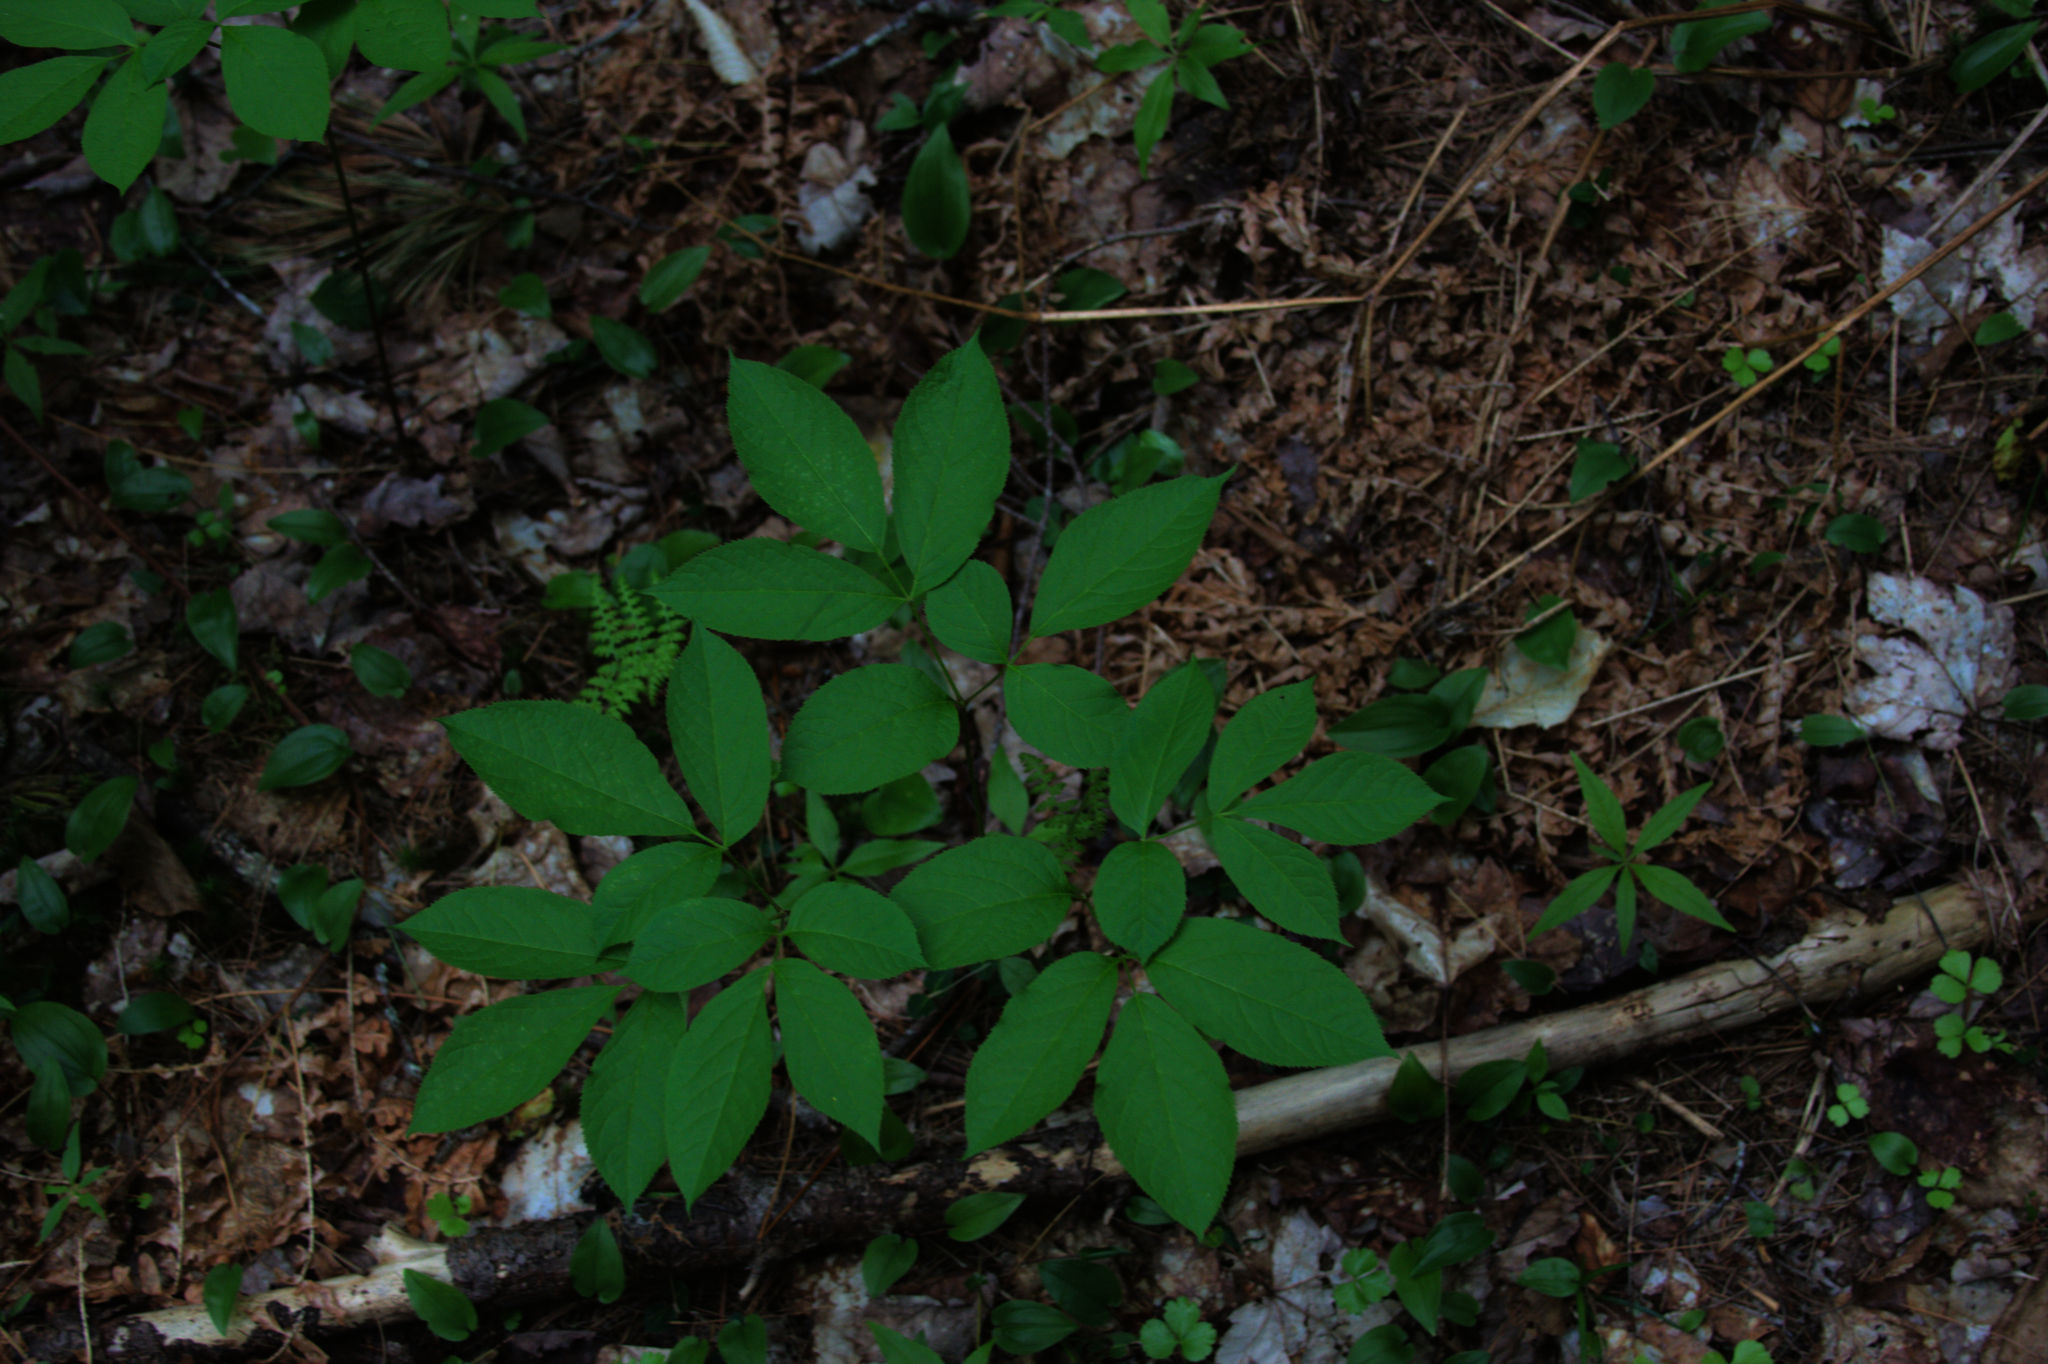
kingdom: Plantae
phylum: Tracheophyta
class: Magnoliopsida
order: Apiales
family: Araliaceae
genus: Aralia
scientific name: Aralia nudicaulis
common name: Wild sarsaparilla
